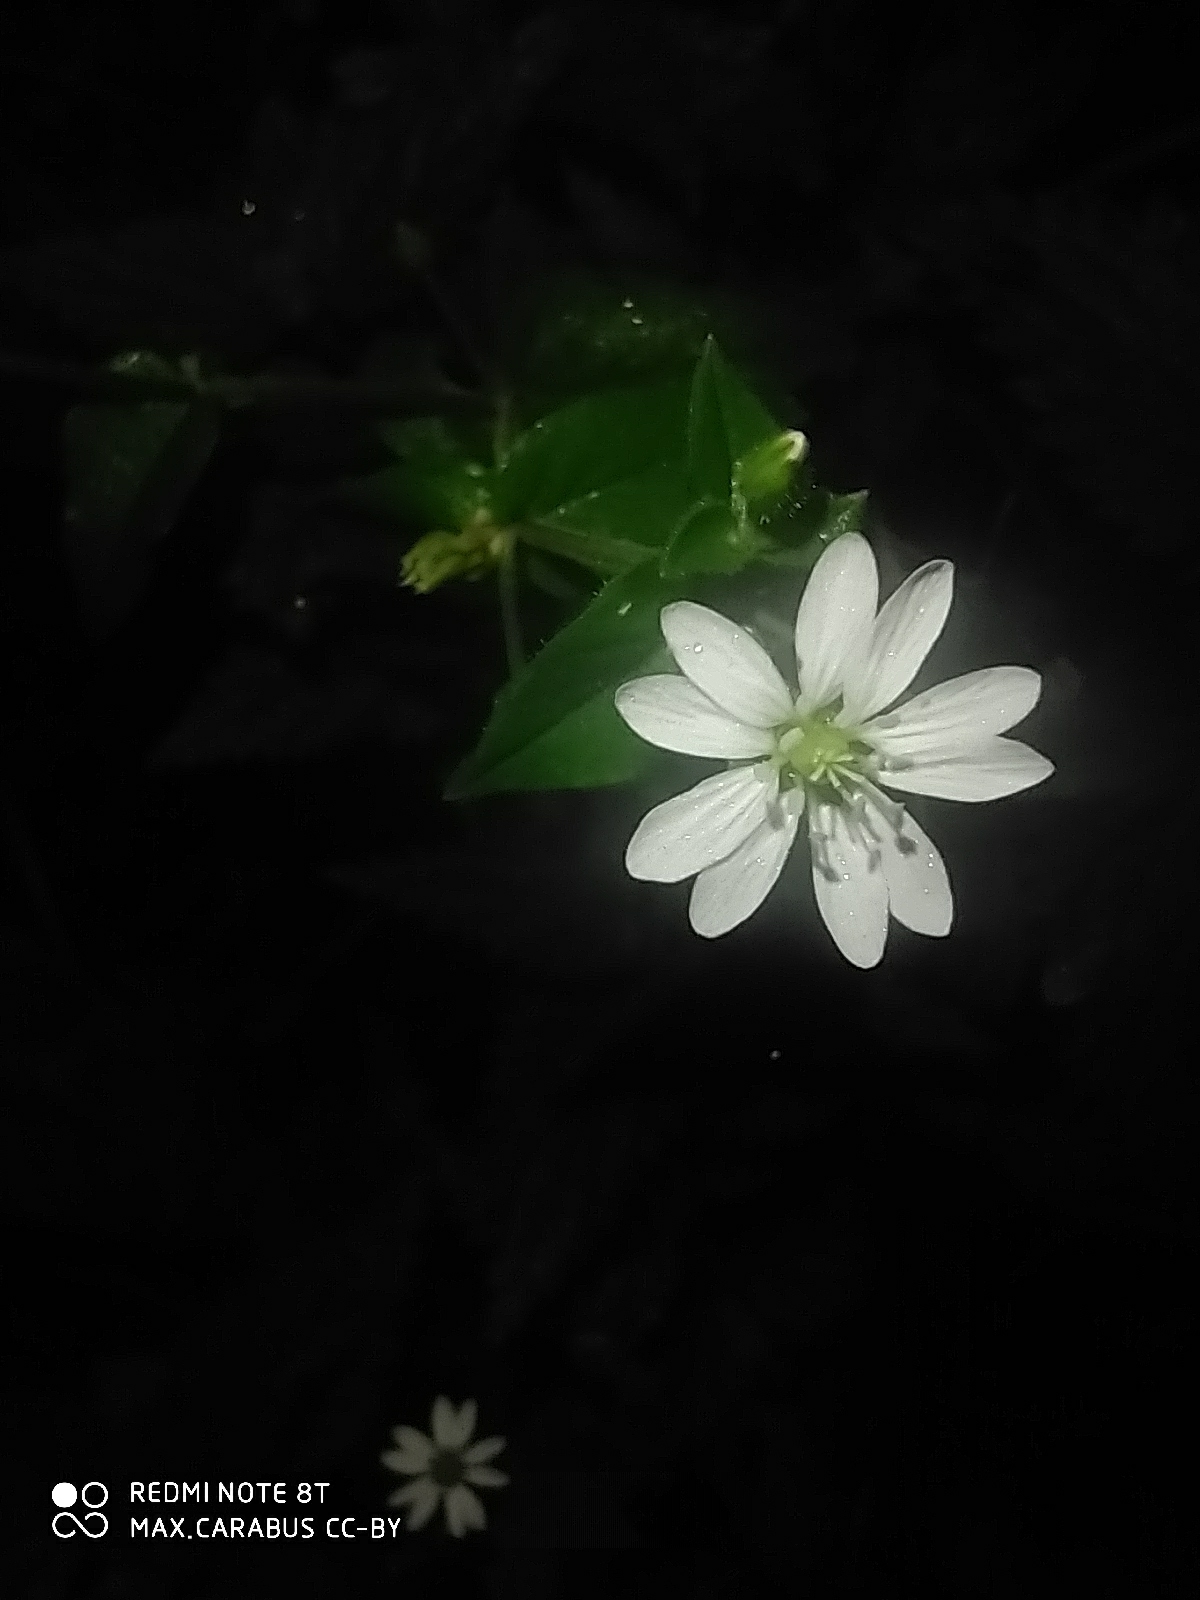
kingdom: Plantae
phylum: Tracheophyta
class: Magnoliopsida
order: Caryophyllales
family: Caryophyllaceae
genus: Stellaria
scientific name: Stellaria aquatica
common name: Water chickweed
